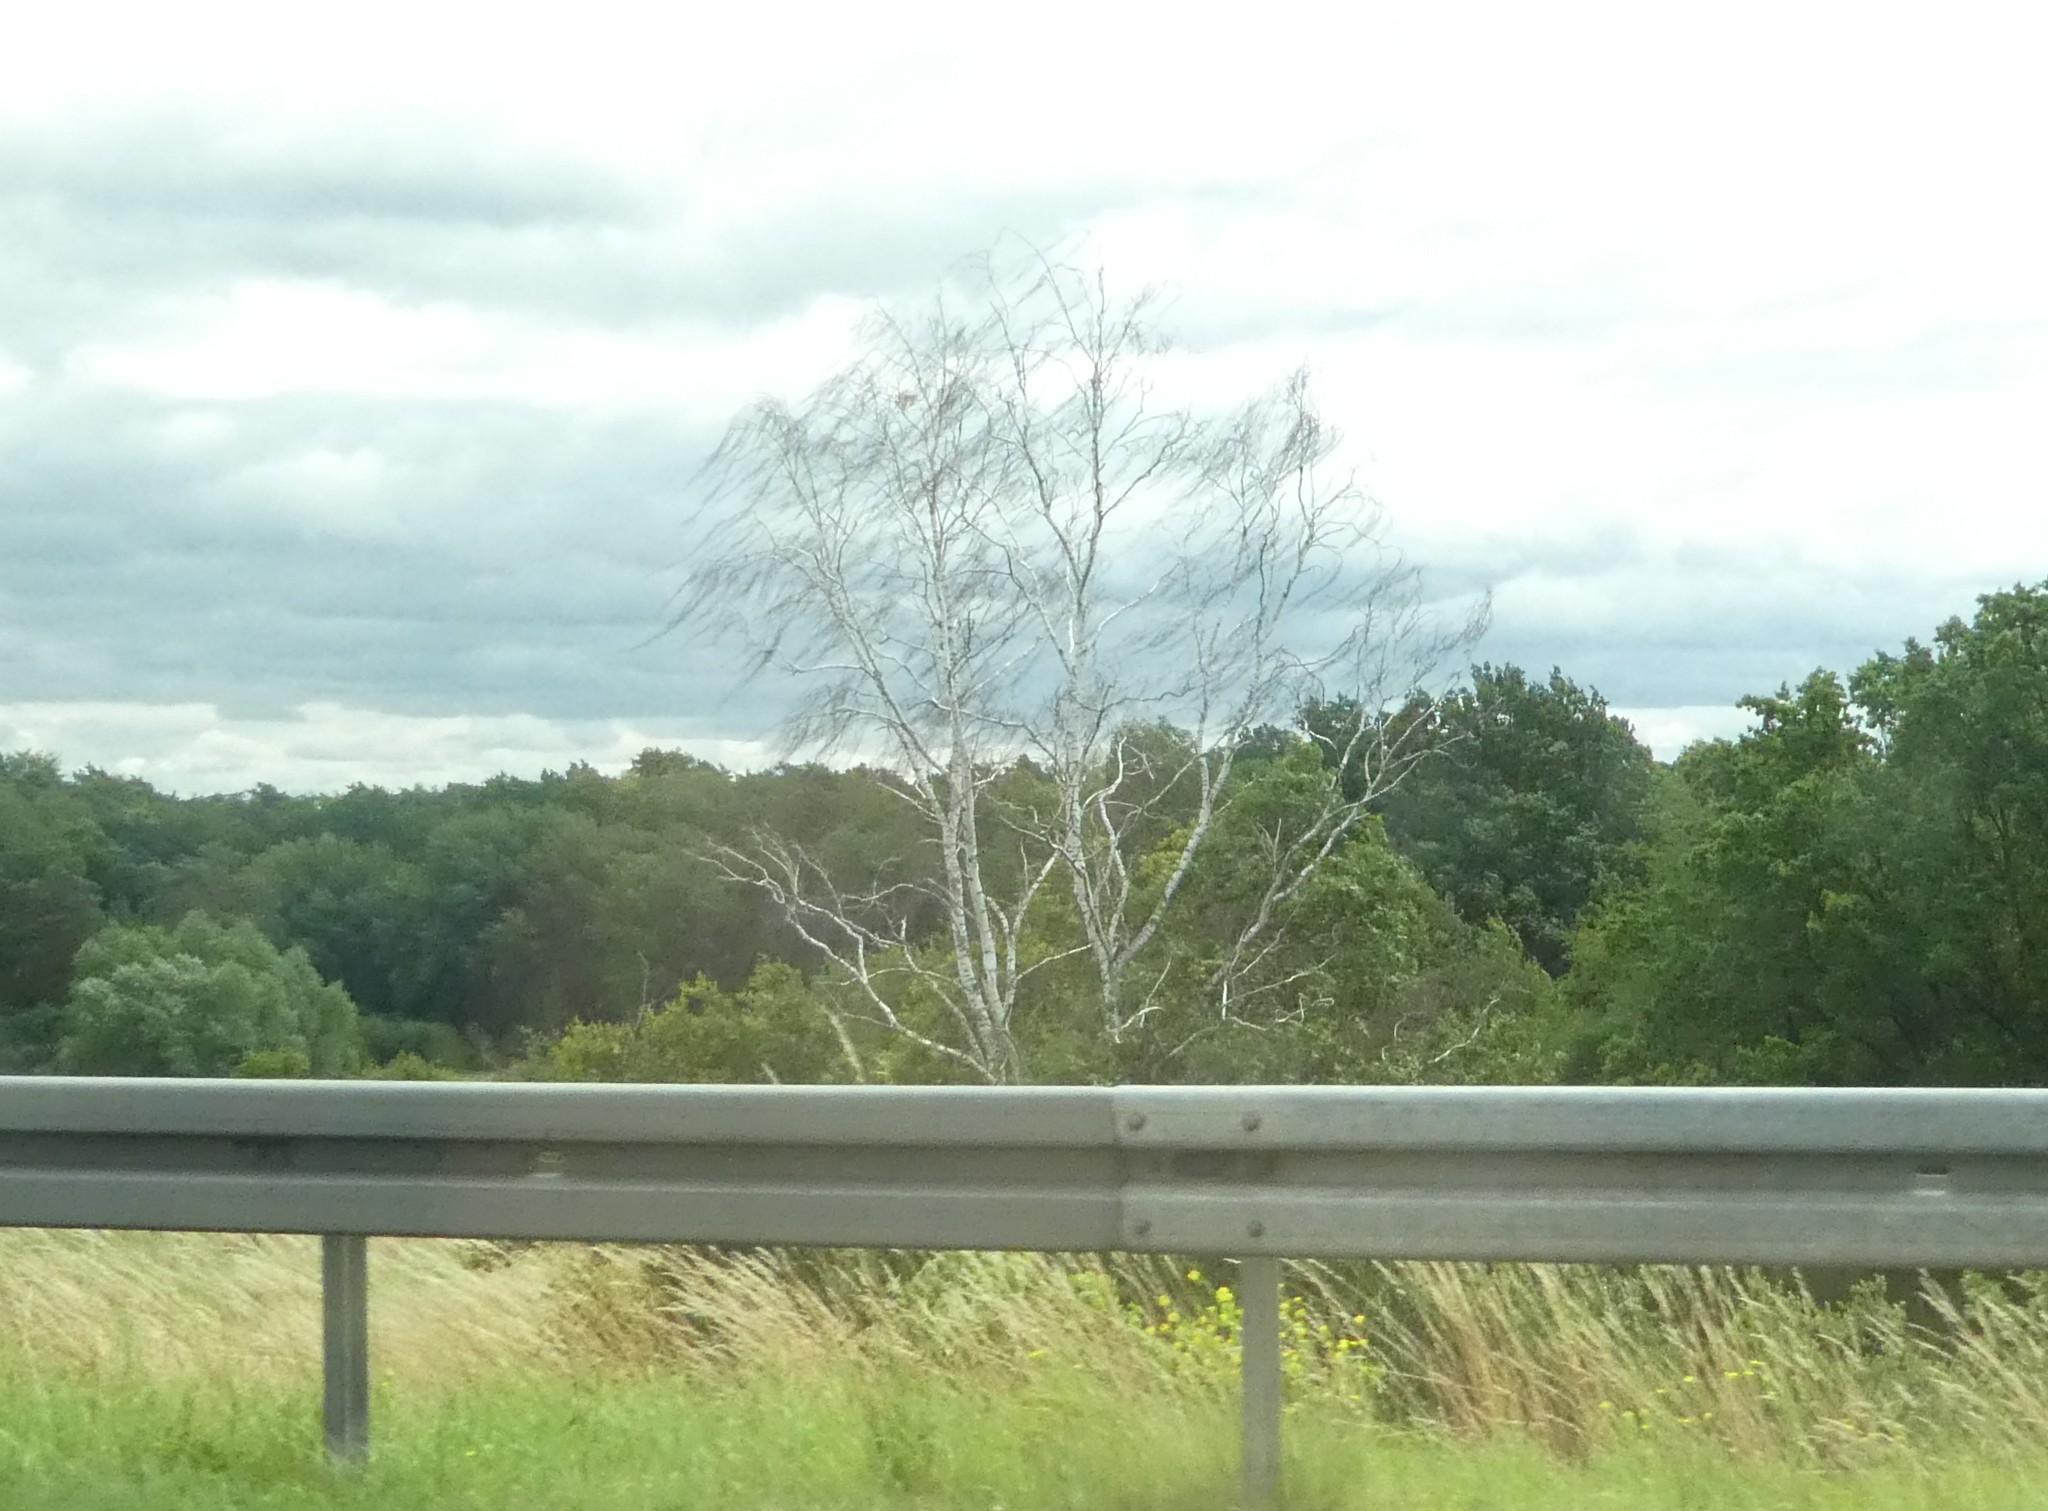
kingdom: Plantae
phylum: Tracheophyta
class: Magnoliopsida
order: Fagales
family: Betulaceae
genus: Betula
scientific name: Betula pendula
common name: Silver birch
